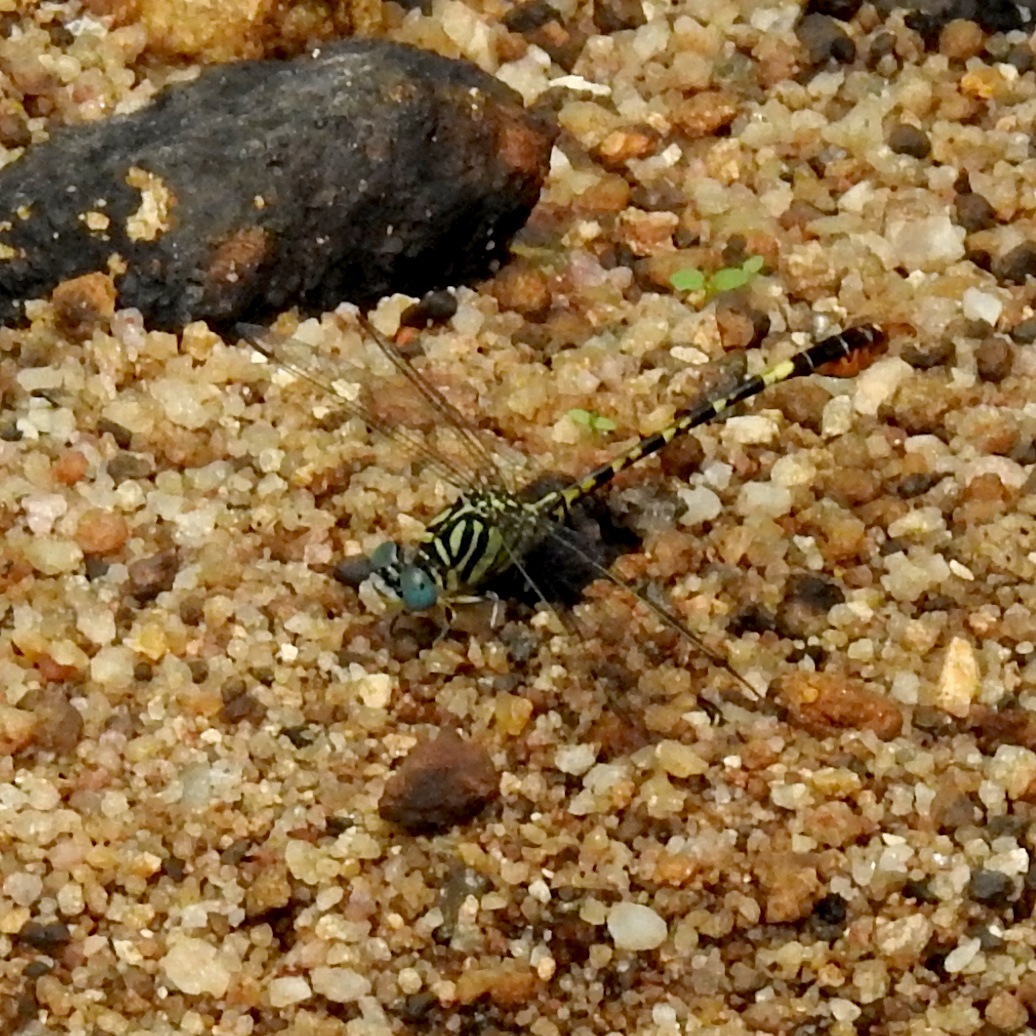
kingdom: Animalia
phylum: Arthropoda
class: Insecta
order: Odonata
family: Gomphidae
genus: Paragomphus
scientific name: Paragomphus lineatus
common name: Lined hooktail
